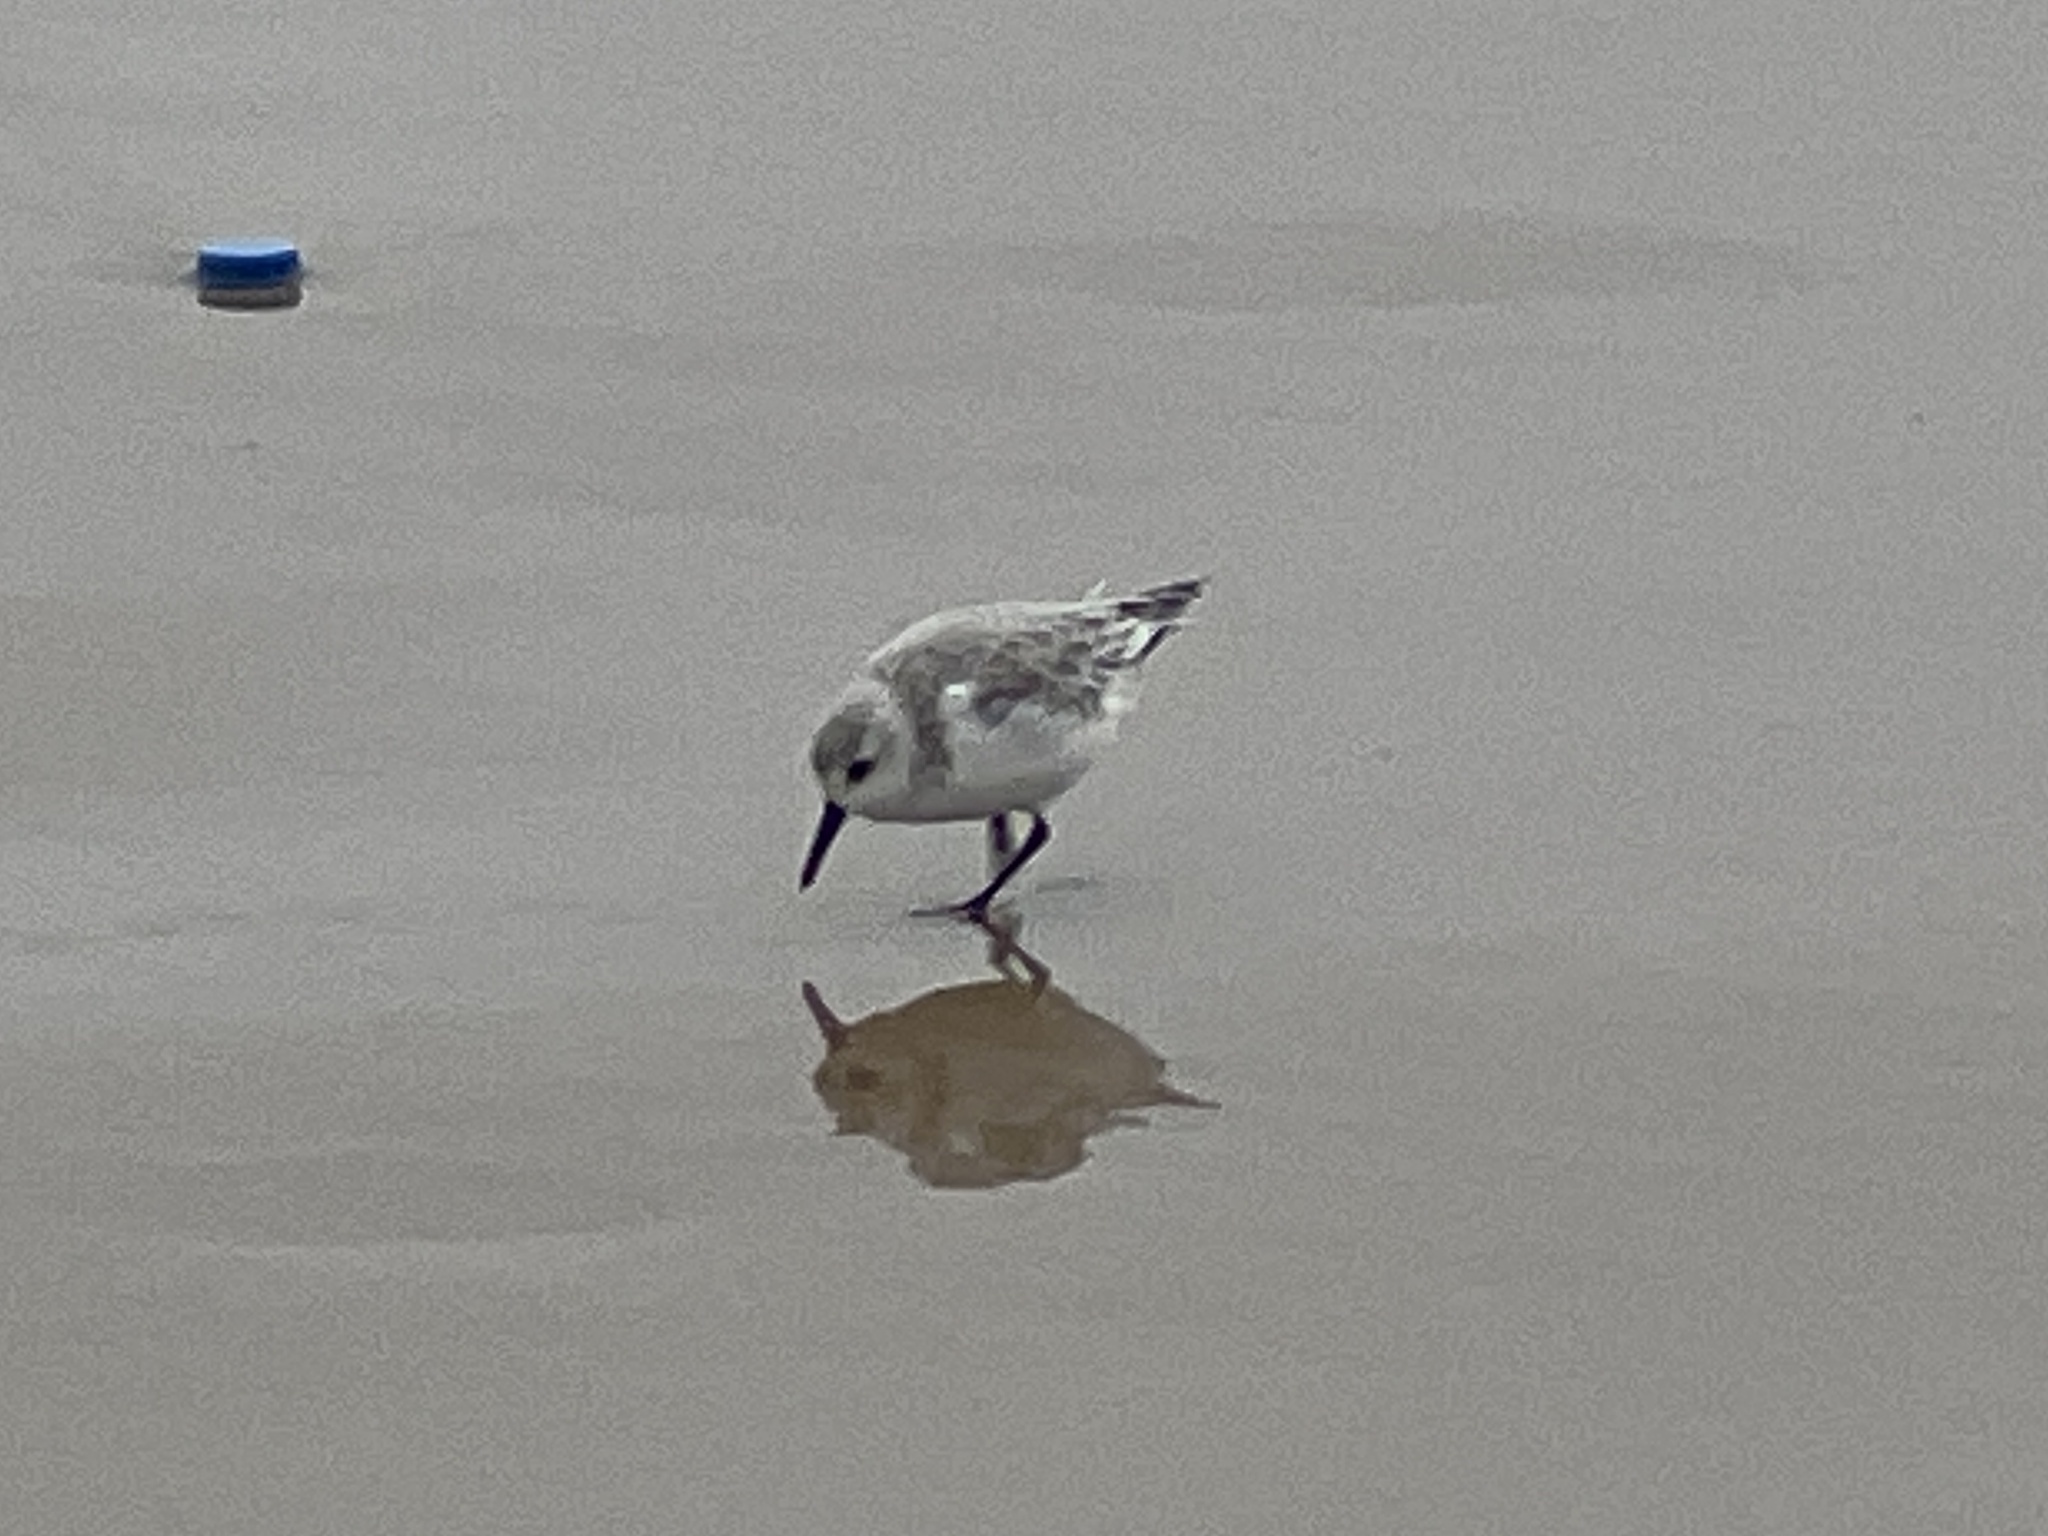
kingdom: Animalia
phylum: Chordata
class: Aves
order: Charadriiformes
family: Scolopacidae
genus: Calidris
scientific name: Calidris alba
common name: Sanderling
